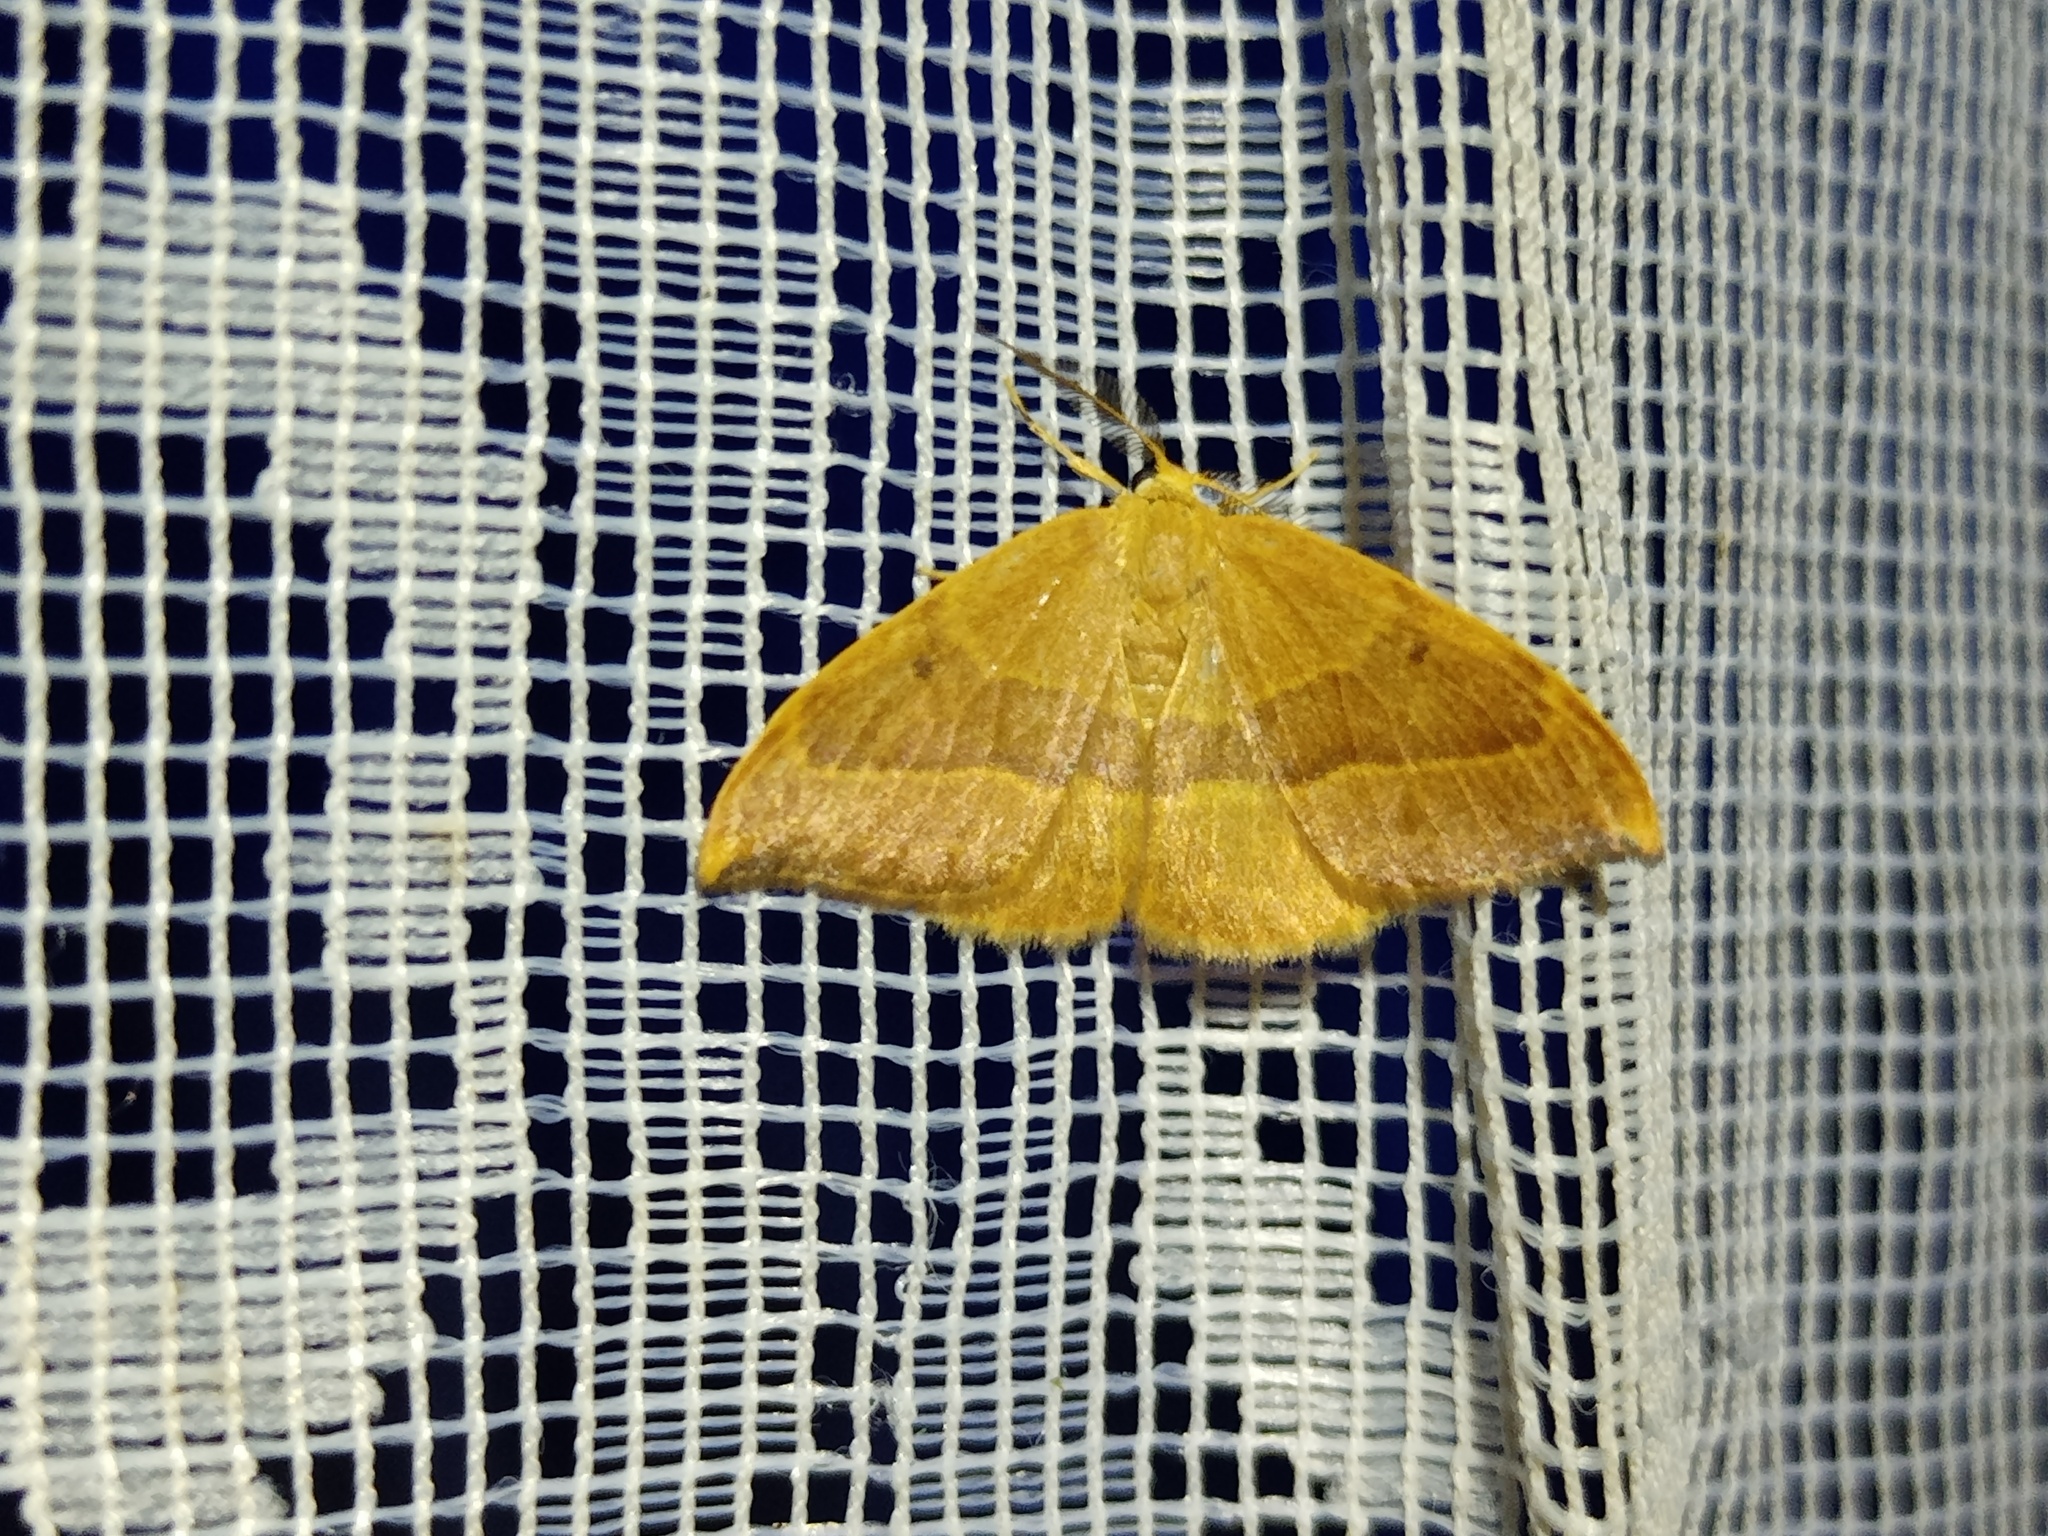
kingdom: Animalia
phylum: Arthropoda
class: Insecta
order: Lepidoptera
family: Drepanidae
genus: Watsonalla
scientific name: Watsonalla cultraria
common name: Barred hook-tip
